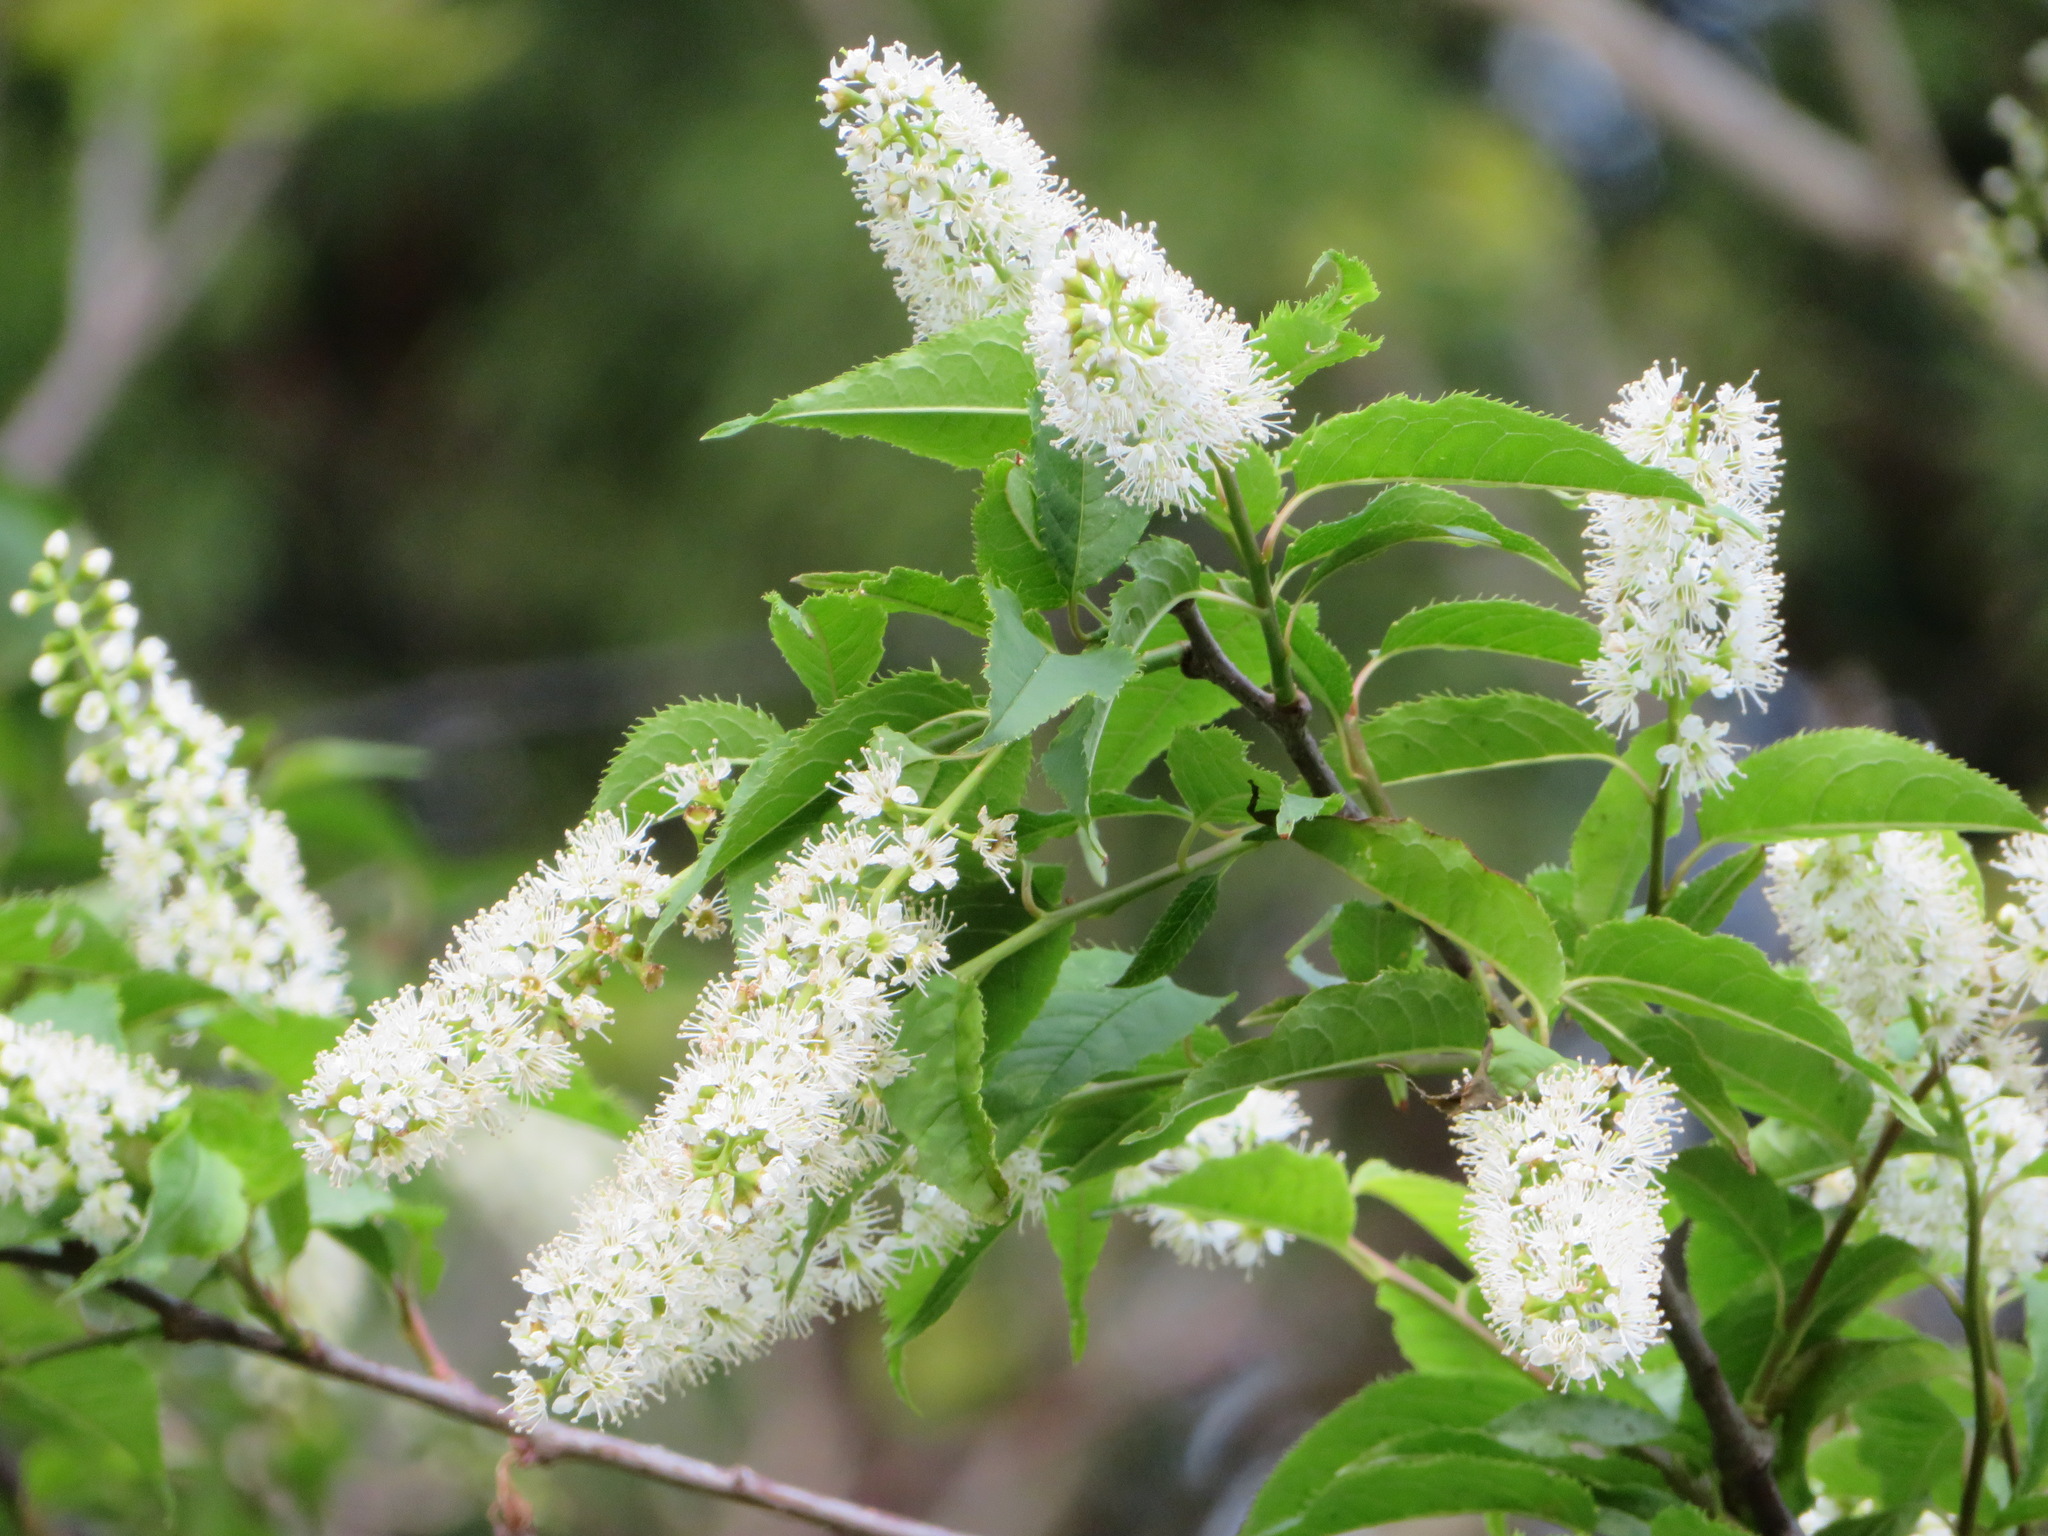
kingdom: Plantae
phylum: Tracheophyta
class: Magnoliopsida
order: Rosales
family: Rosaceae
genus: Prunus
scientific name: Prunus grayana
